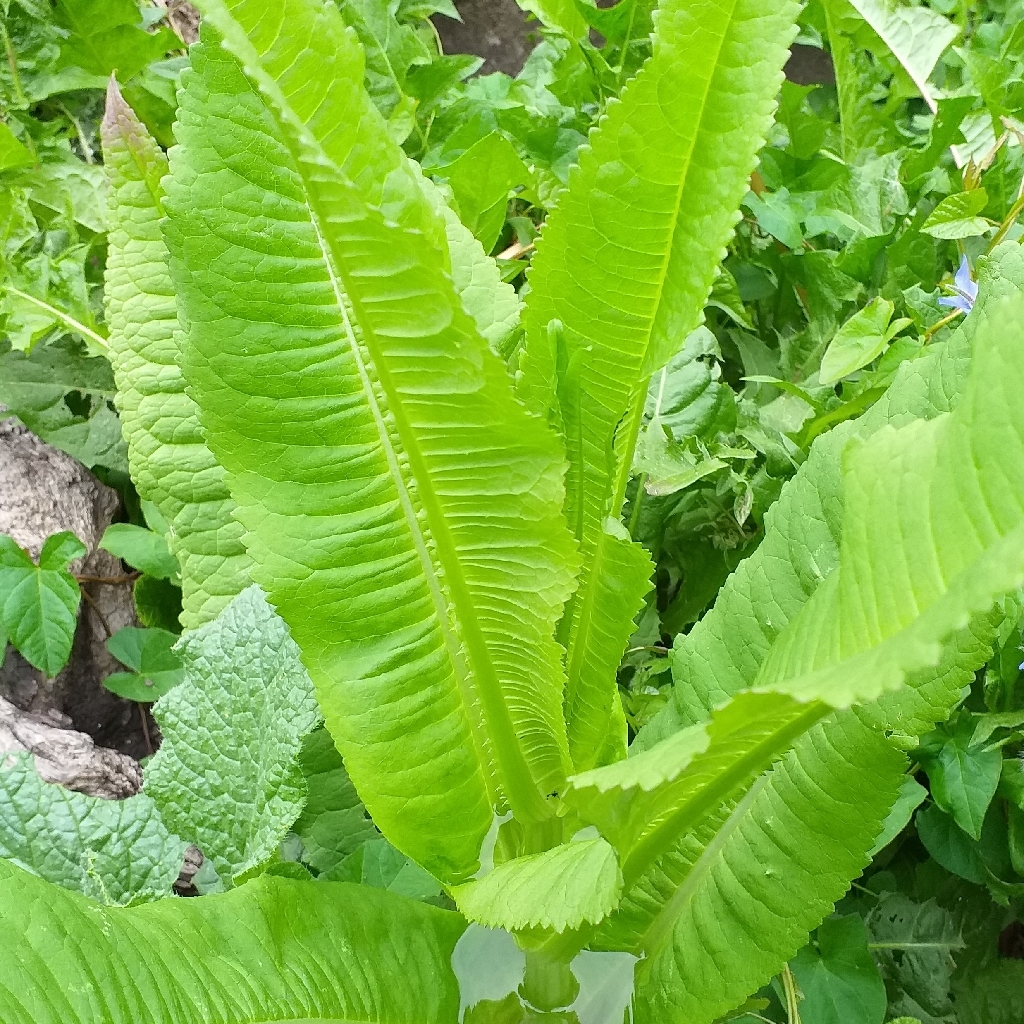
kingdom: Plantae
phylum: Tracheophyta
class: Magnoliopsida
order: Dipsacales
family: Caprifoliaceae
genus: Dipsacus
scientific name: Dipsacus fullonum
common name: Teasel
